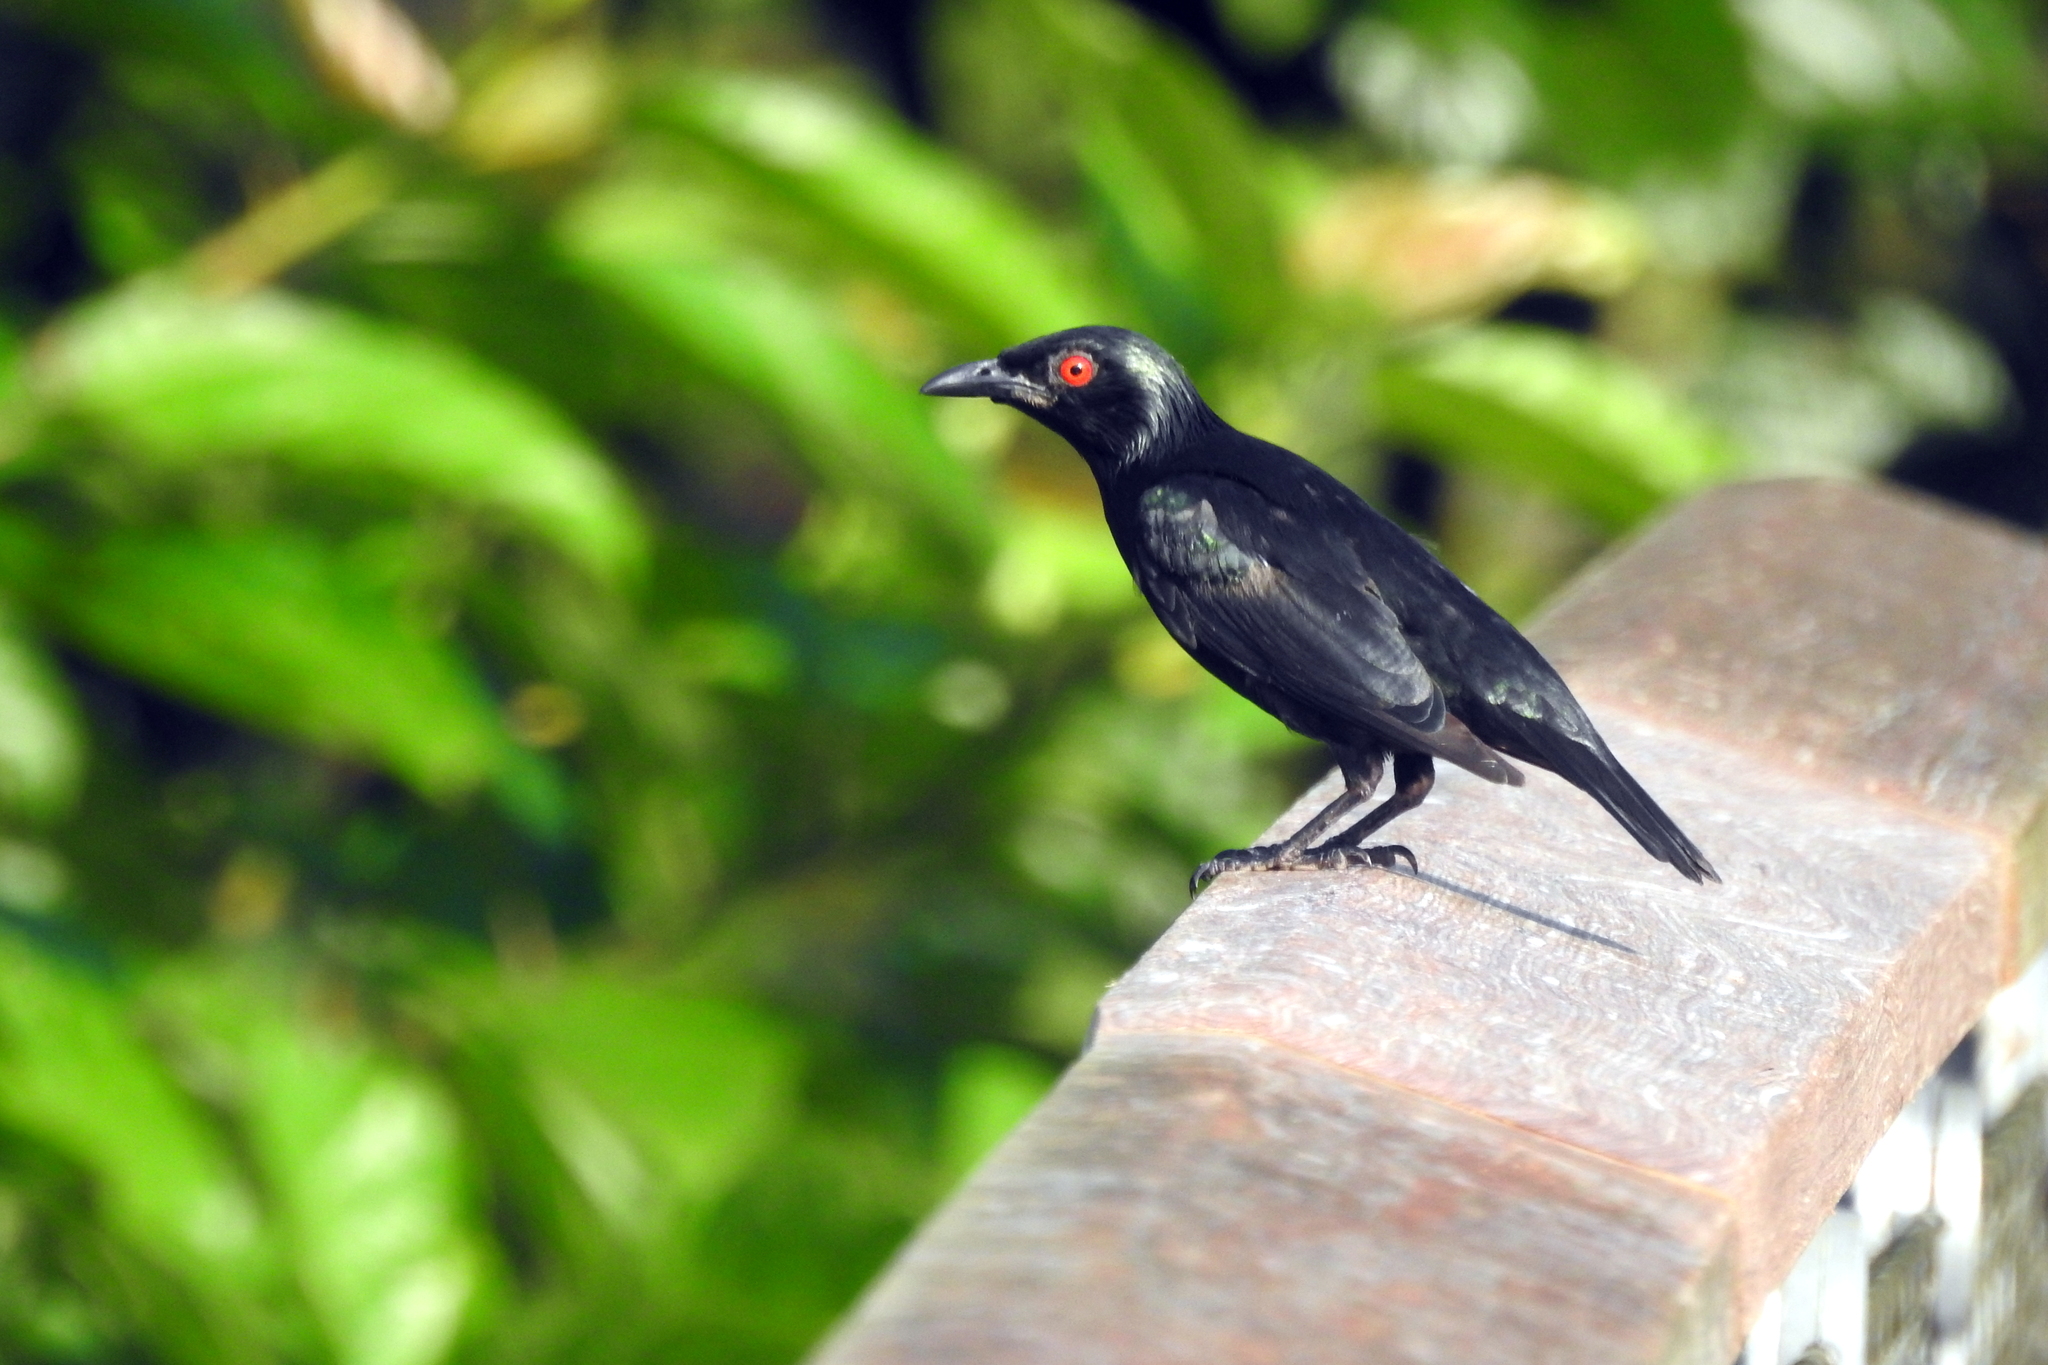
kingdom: Animalia
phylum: Chordata
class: Aves
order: Passeriformes
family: Sturnidae
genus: Aplonis
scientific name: Aplonis panayensis
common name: Asian glossy starling
